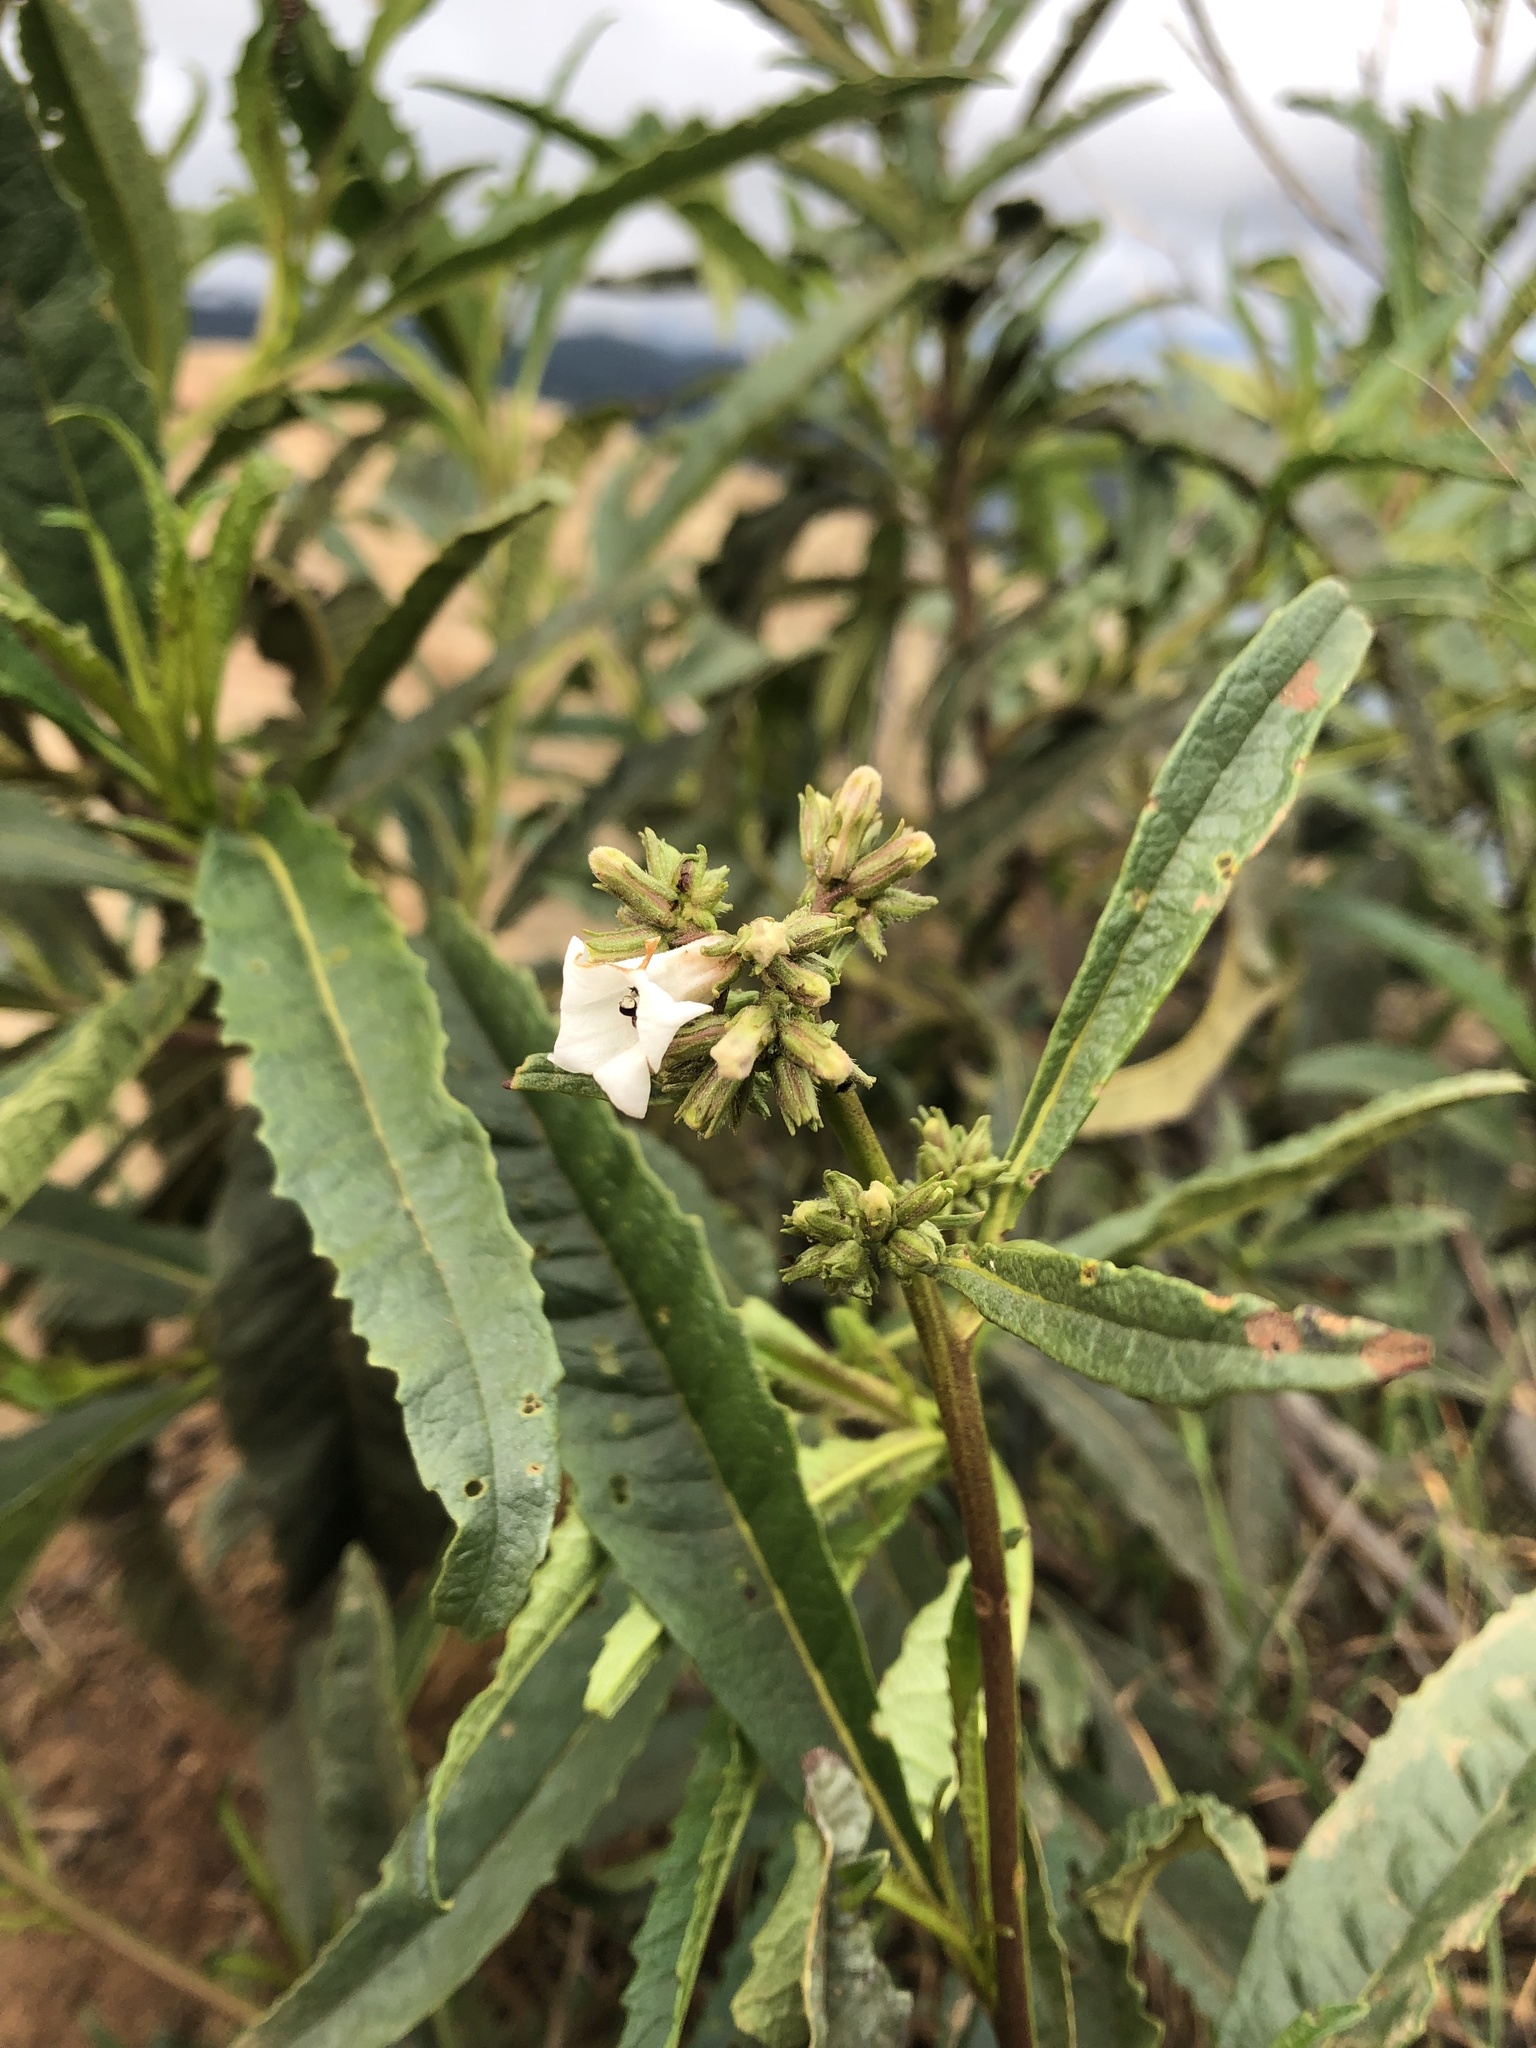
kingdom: Plantae
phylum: Tracheophyta
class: Magnoliopsida
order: Boraginales
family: Namaceae
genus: Eriodictyon
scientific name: Eriodictyon californicum
